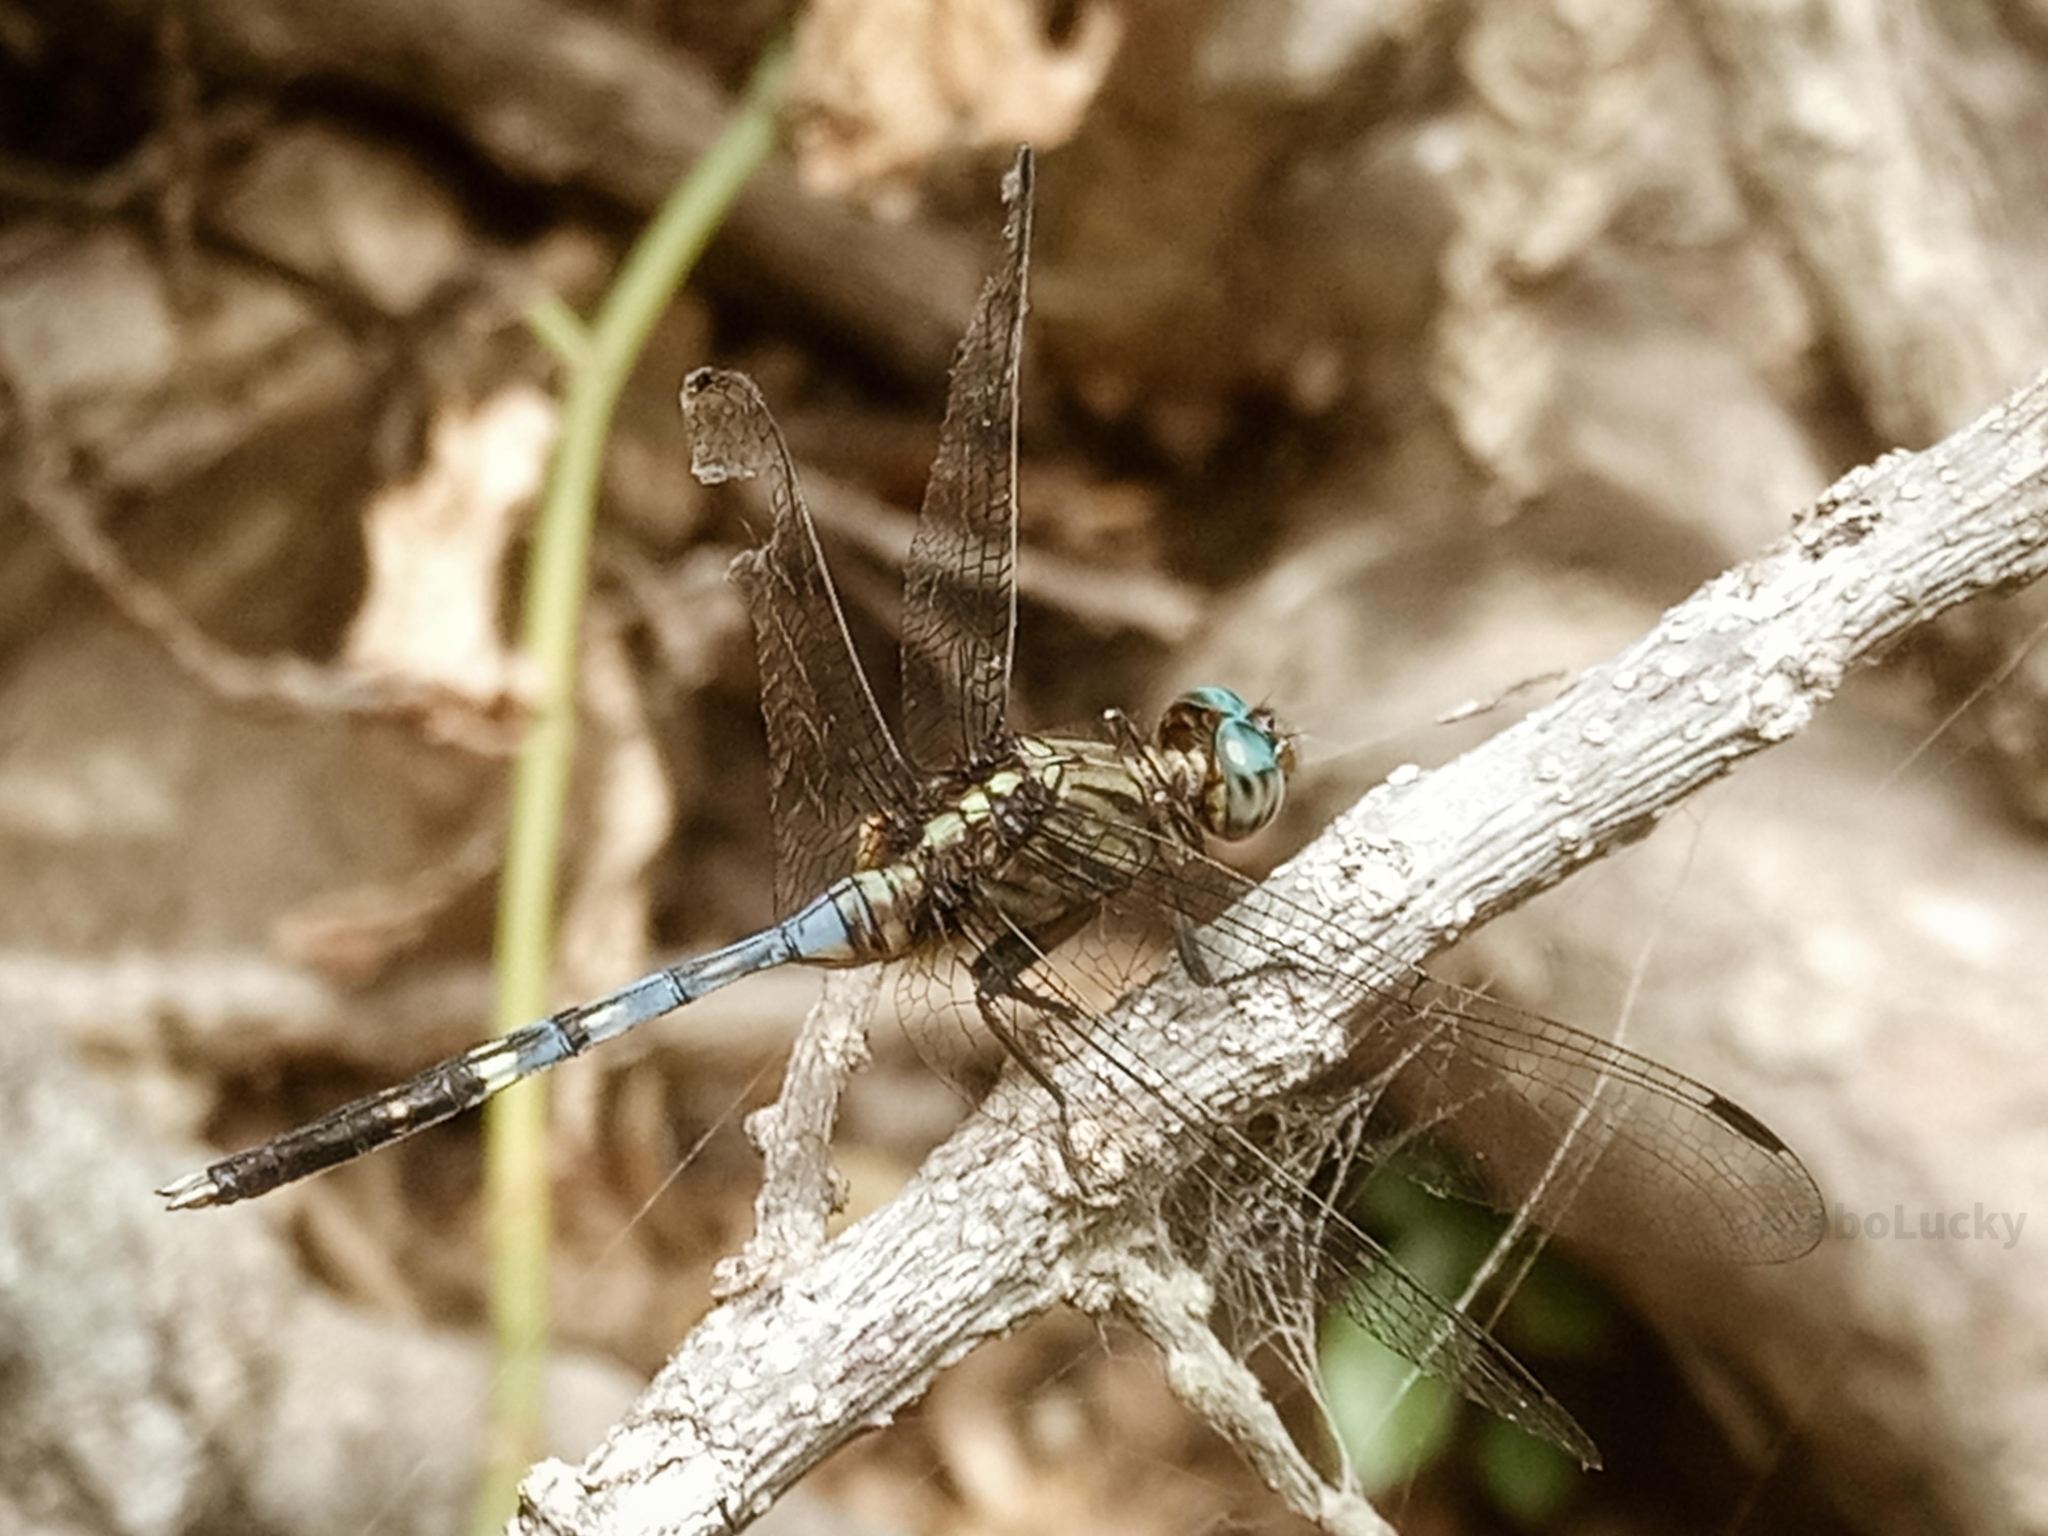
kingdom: Animalia
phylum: Arthropoda
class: Insecta
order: Odonata
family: Libellulidae
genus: Orthetrum
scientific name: Orthetrum julia
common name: Julia skimmer
